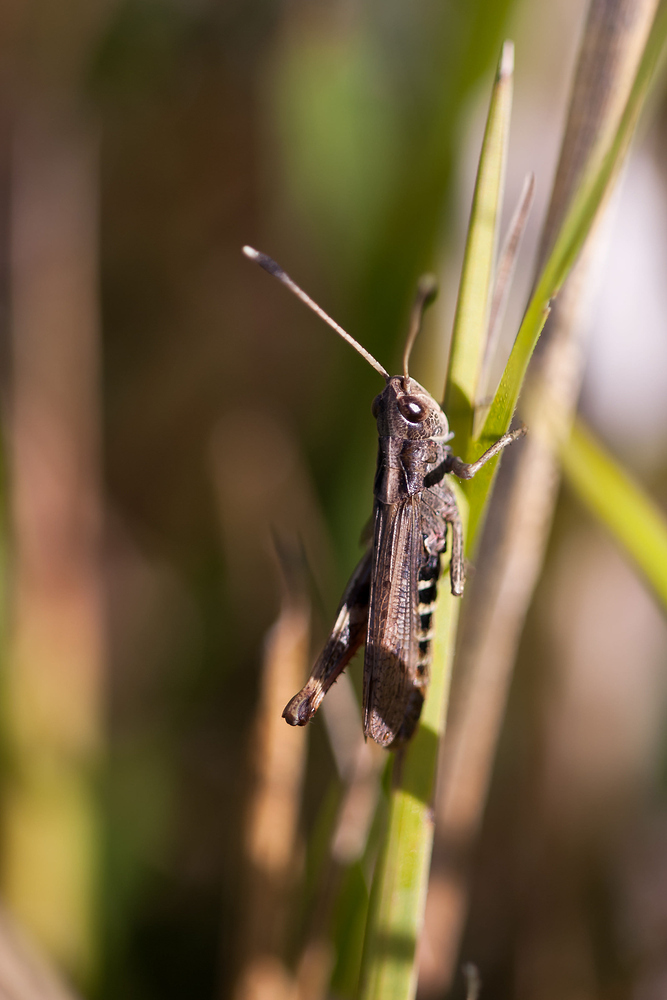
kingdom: Animalia
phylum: Arthropoda
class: Insecta
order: Orthoptera
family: Acrididae
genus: Gomphocerippus
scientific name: Gomphocerippus rufus
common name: Rufous grasshopper
